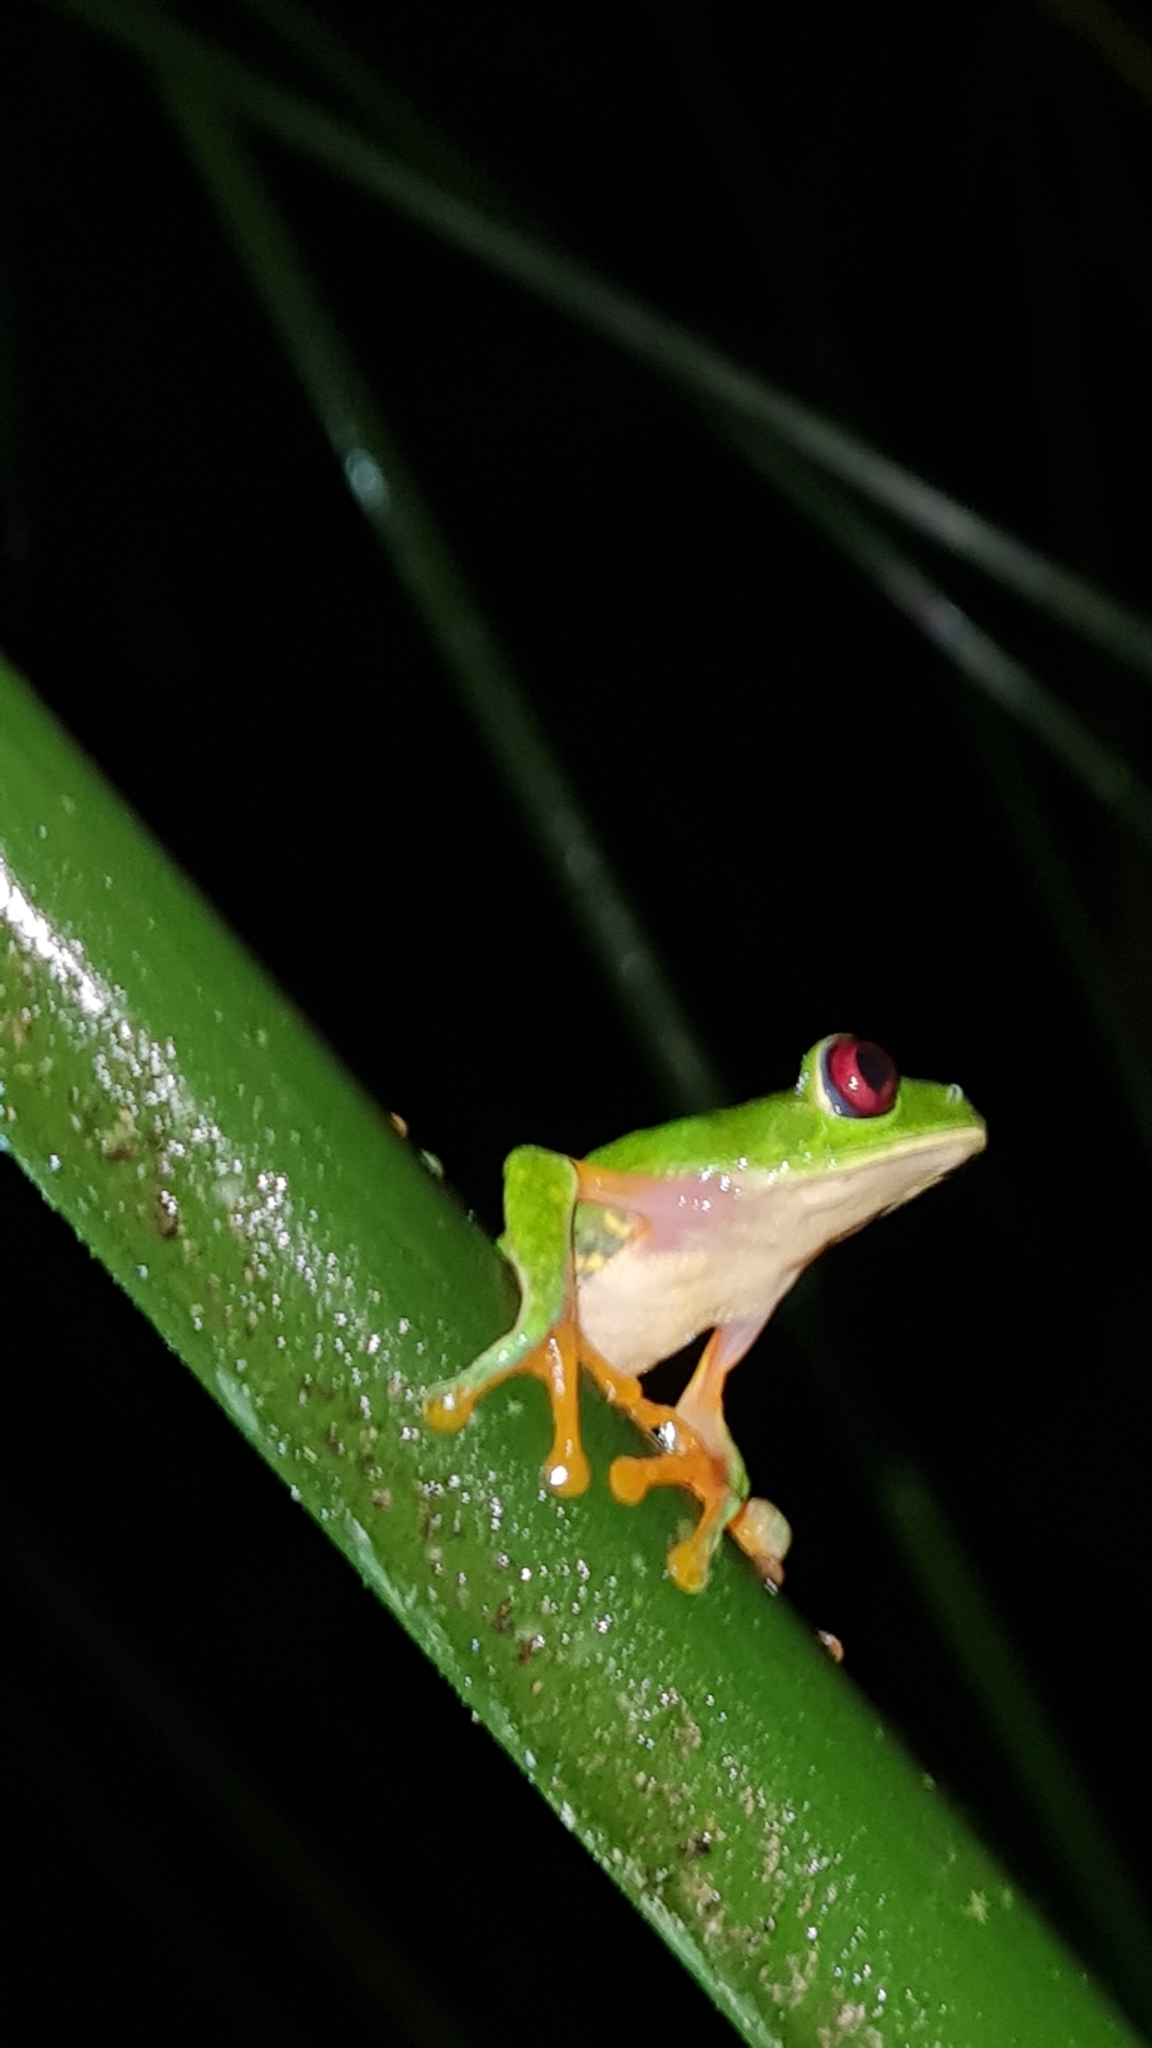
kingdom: Animalia
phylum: Chordata
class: Amphibia
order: Anura
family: Phyllomedusidae
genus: Agalychnis
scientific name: Agalychnis callidryas
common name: Red-eyed treefrog
